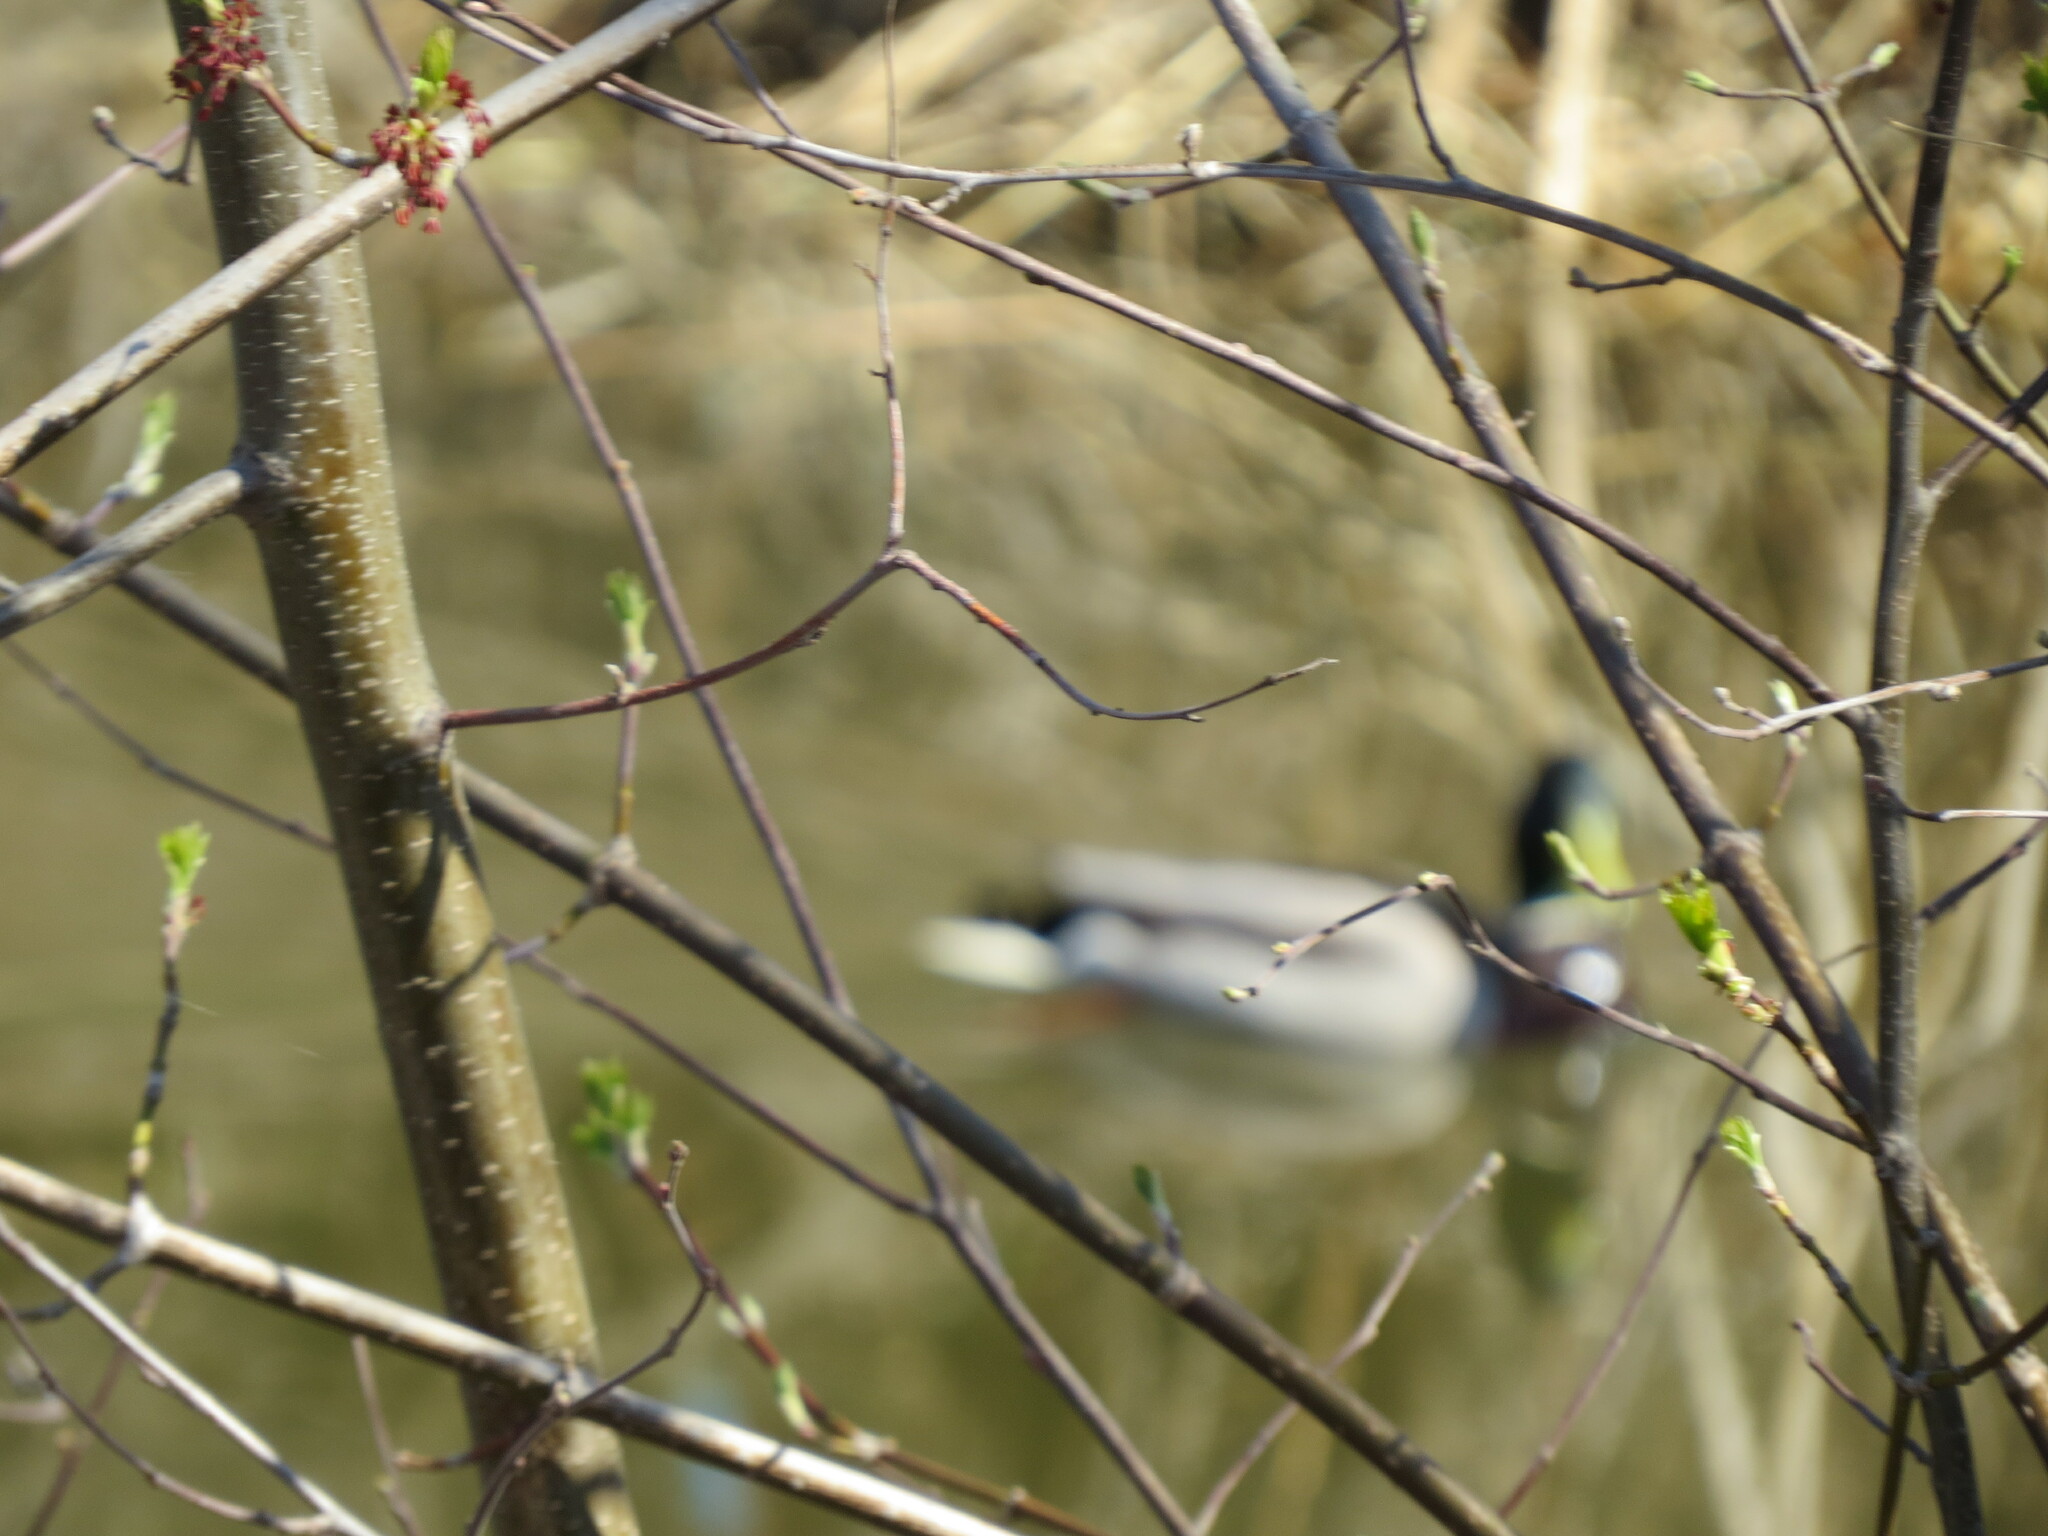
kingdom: Animalia
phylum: Chordata
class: Aves
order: Anseriformes
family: Anatidae
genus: Anas
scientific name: Anas platyrhynchos
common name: Mallard
